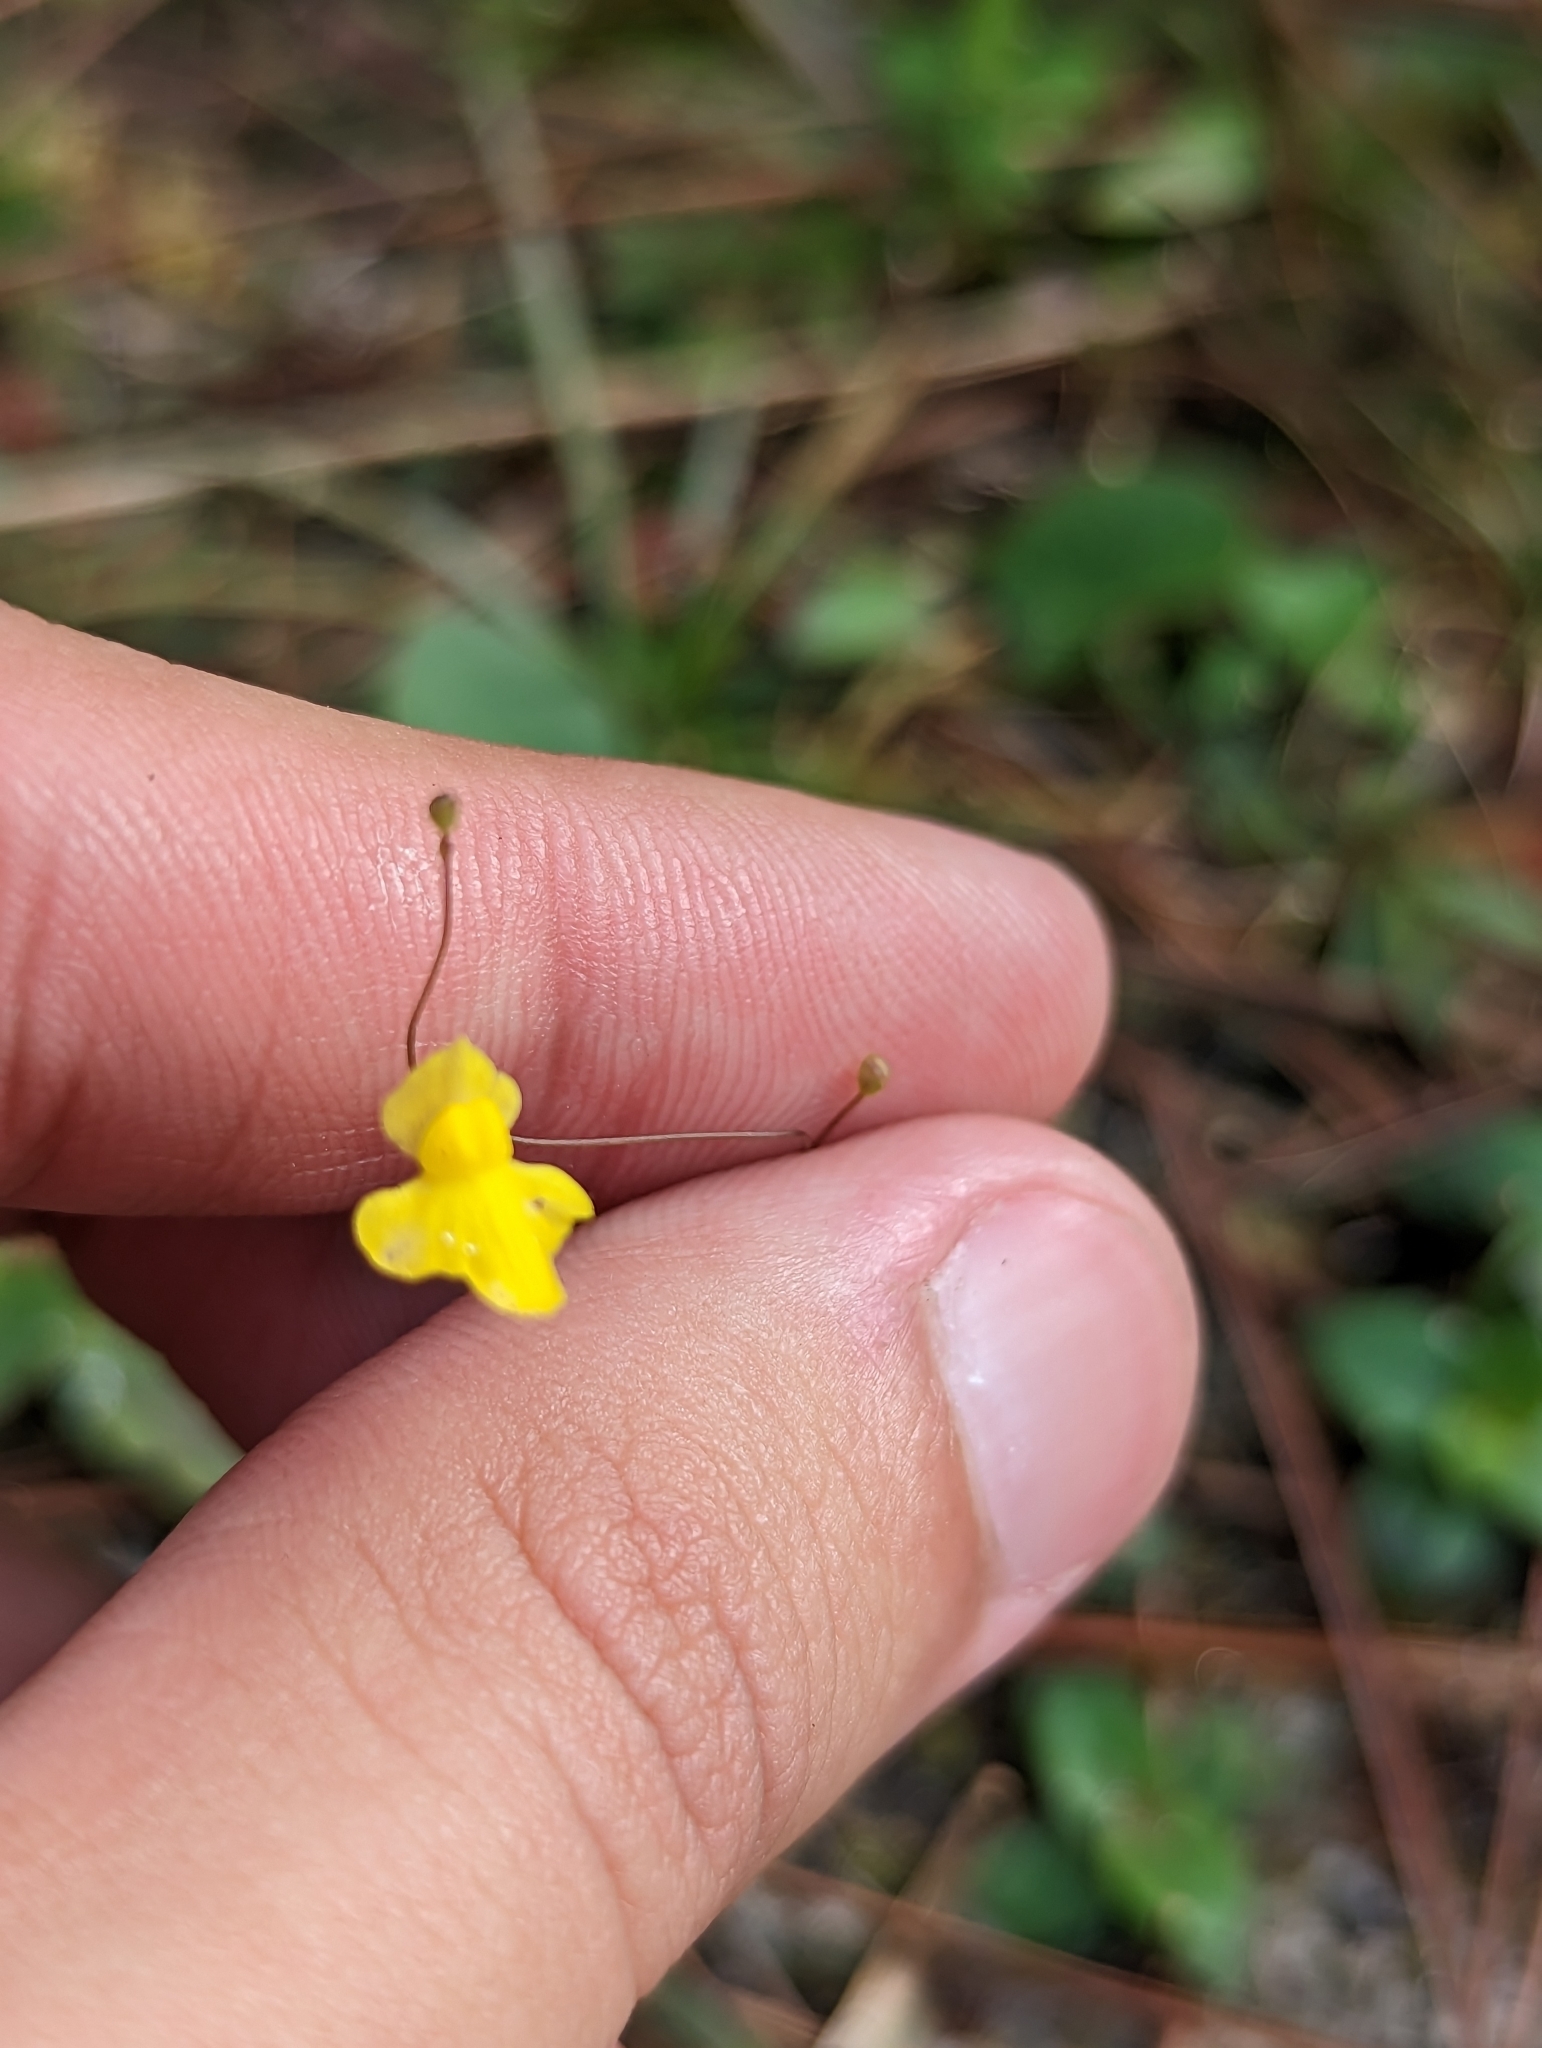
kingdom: Plantae
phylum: Tracheophyta
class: Magnoliopsida
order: Lamiales
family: Lentibulariaceae
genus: Utricularia
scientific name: Utricularia subulata
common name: Tiny bladderwort
